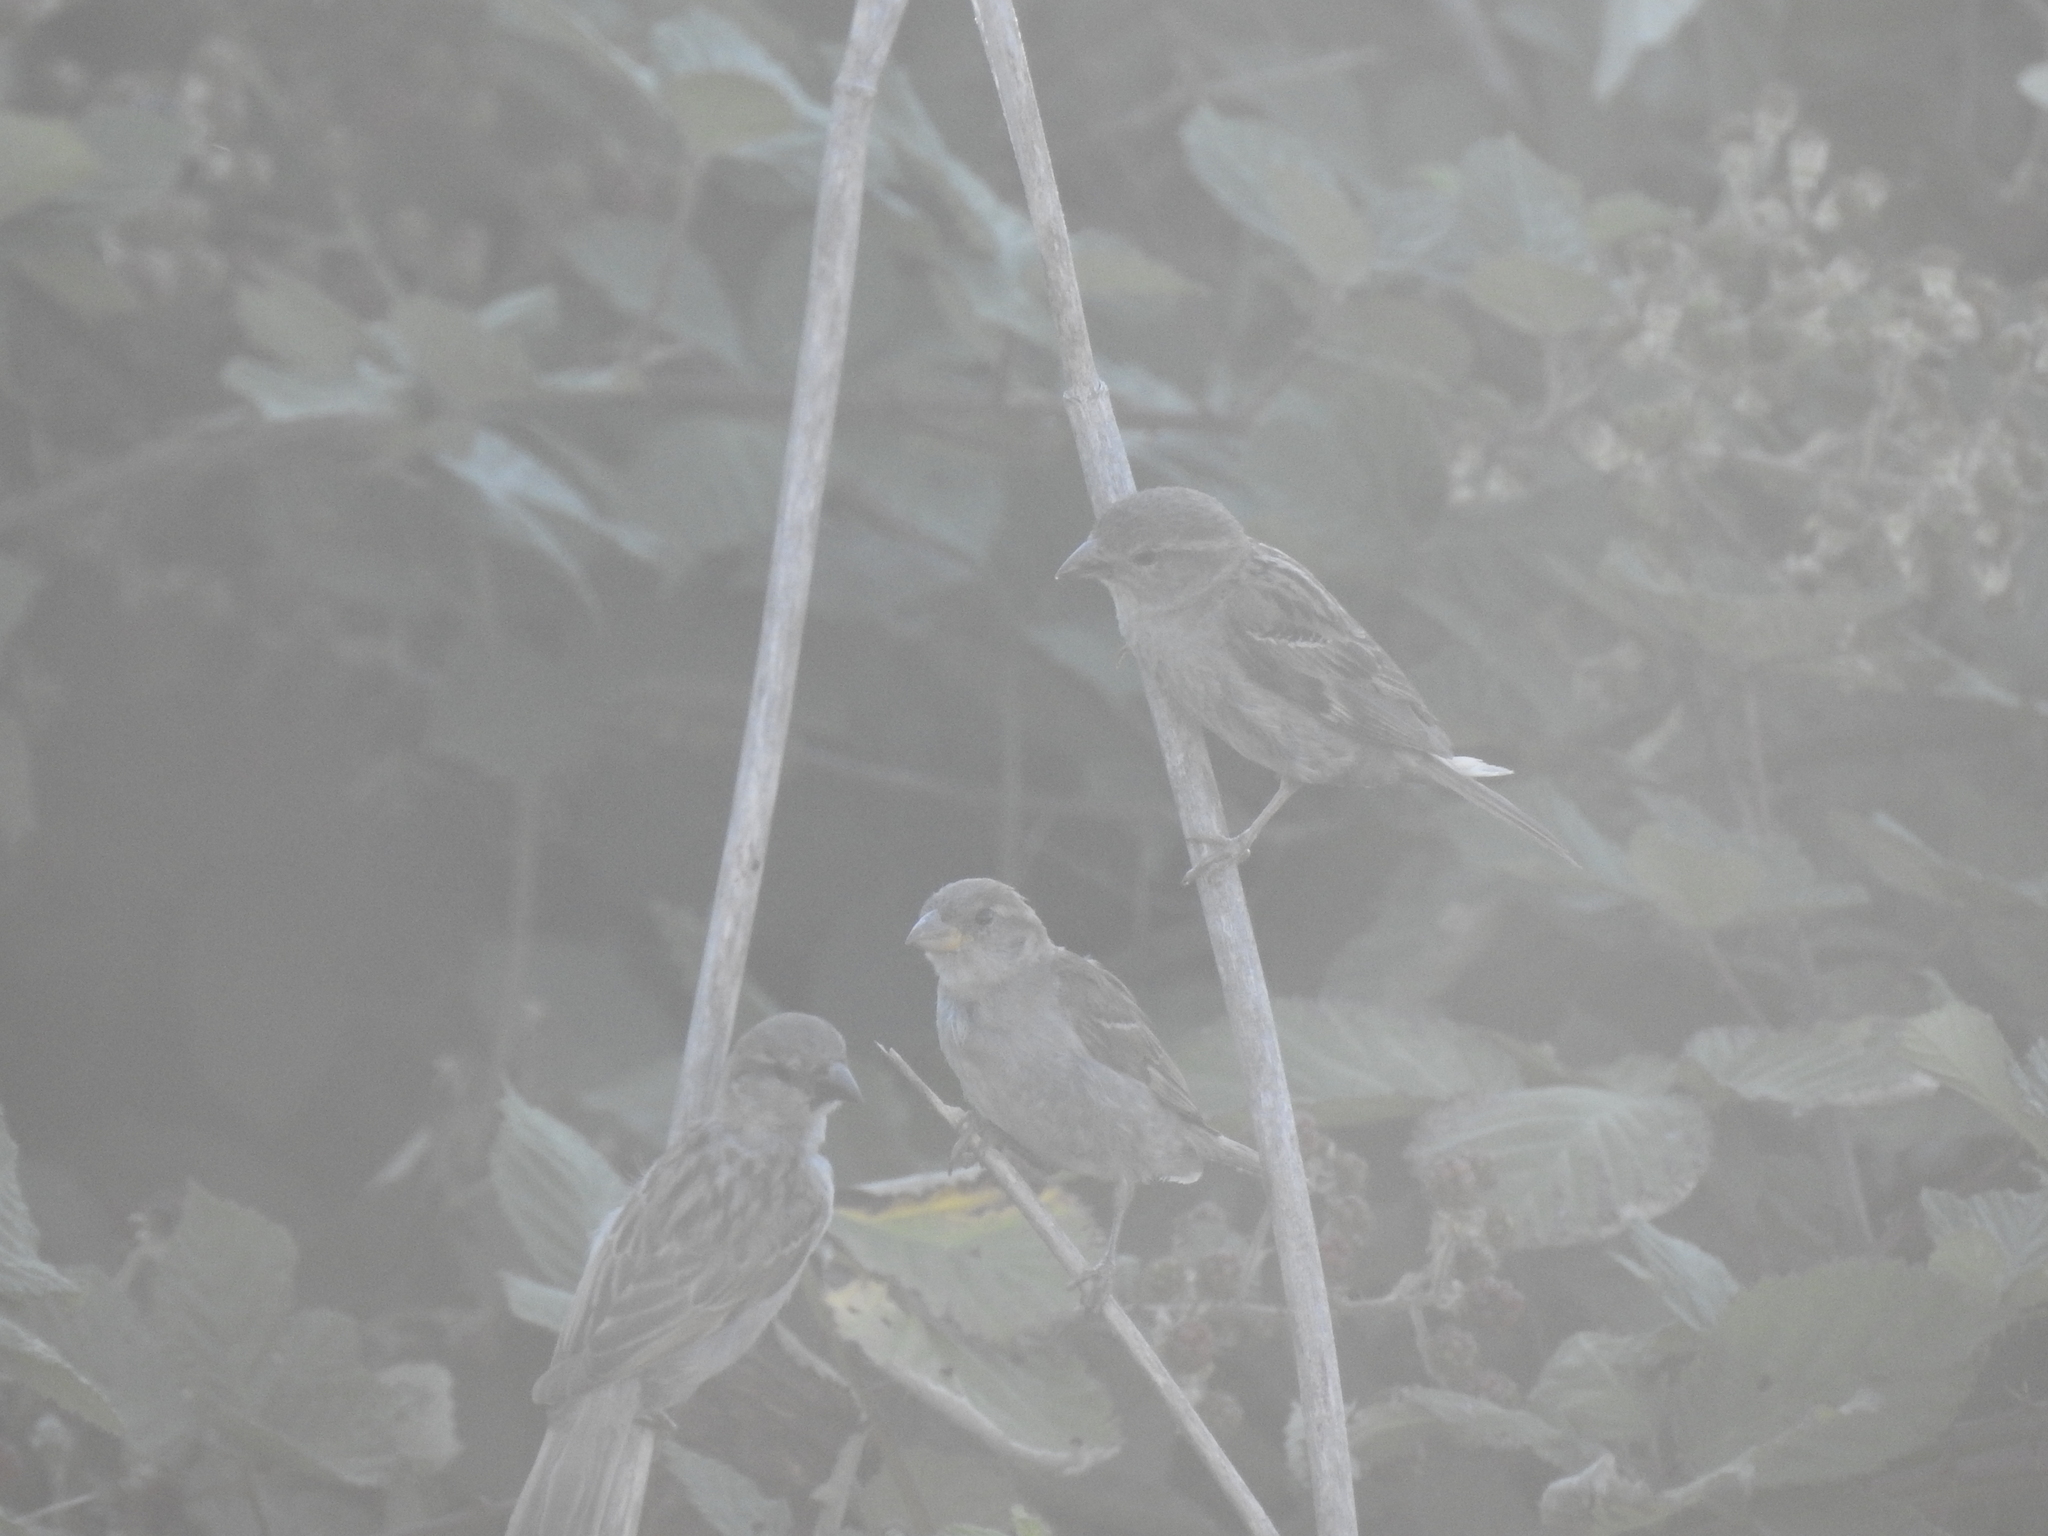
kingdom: Animalia
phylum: Chordata
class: Aves
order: Passeriformes
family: Passeridae
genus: Passer
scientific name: Passer domesticus
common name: House sparrow
